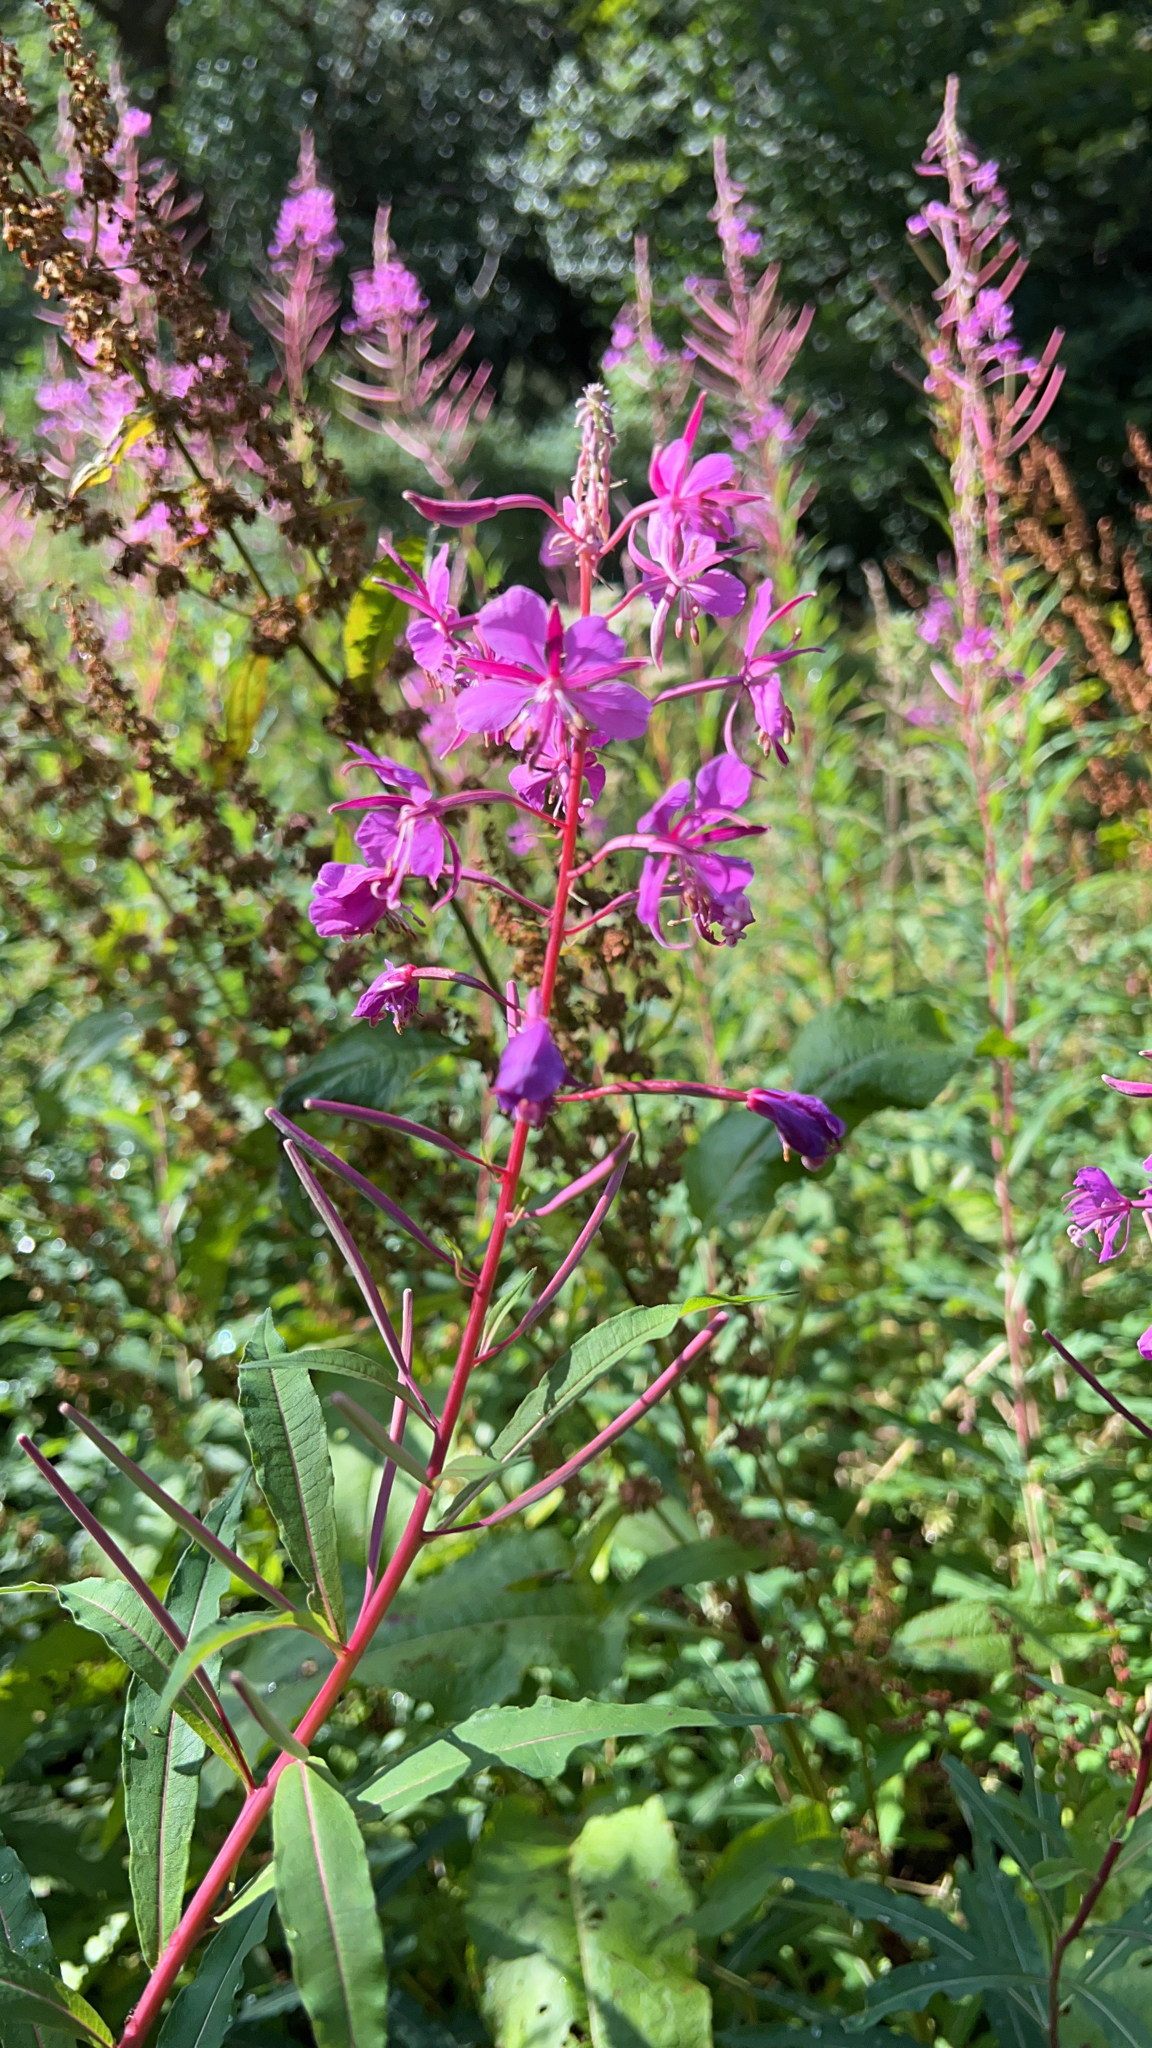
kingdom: Plantae
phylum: Tracheophyta
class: Magnoliopsida
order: Myrtales
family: Onagraceae
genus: Chamaenerion
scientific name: Chamaenerion angustifolium
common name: Fireweed
